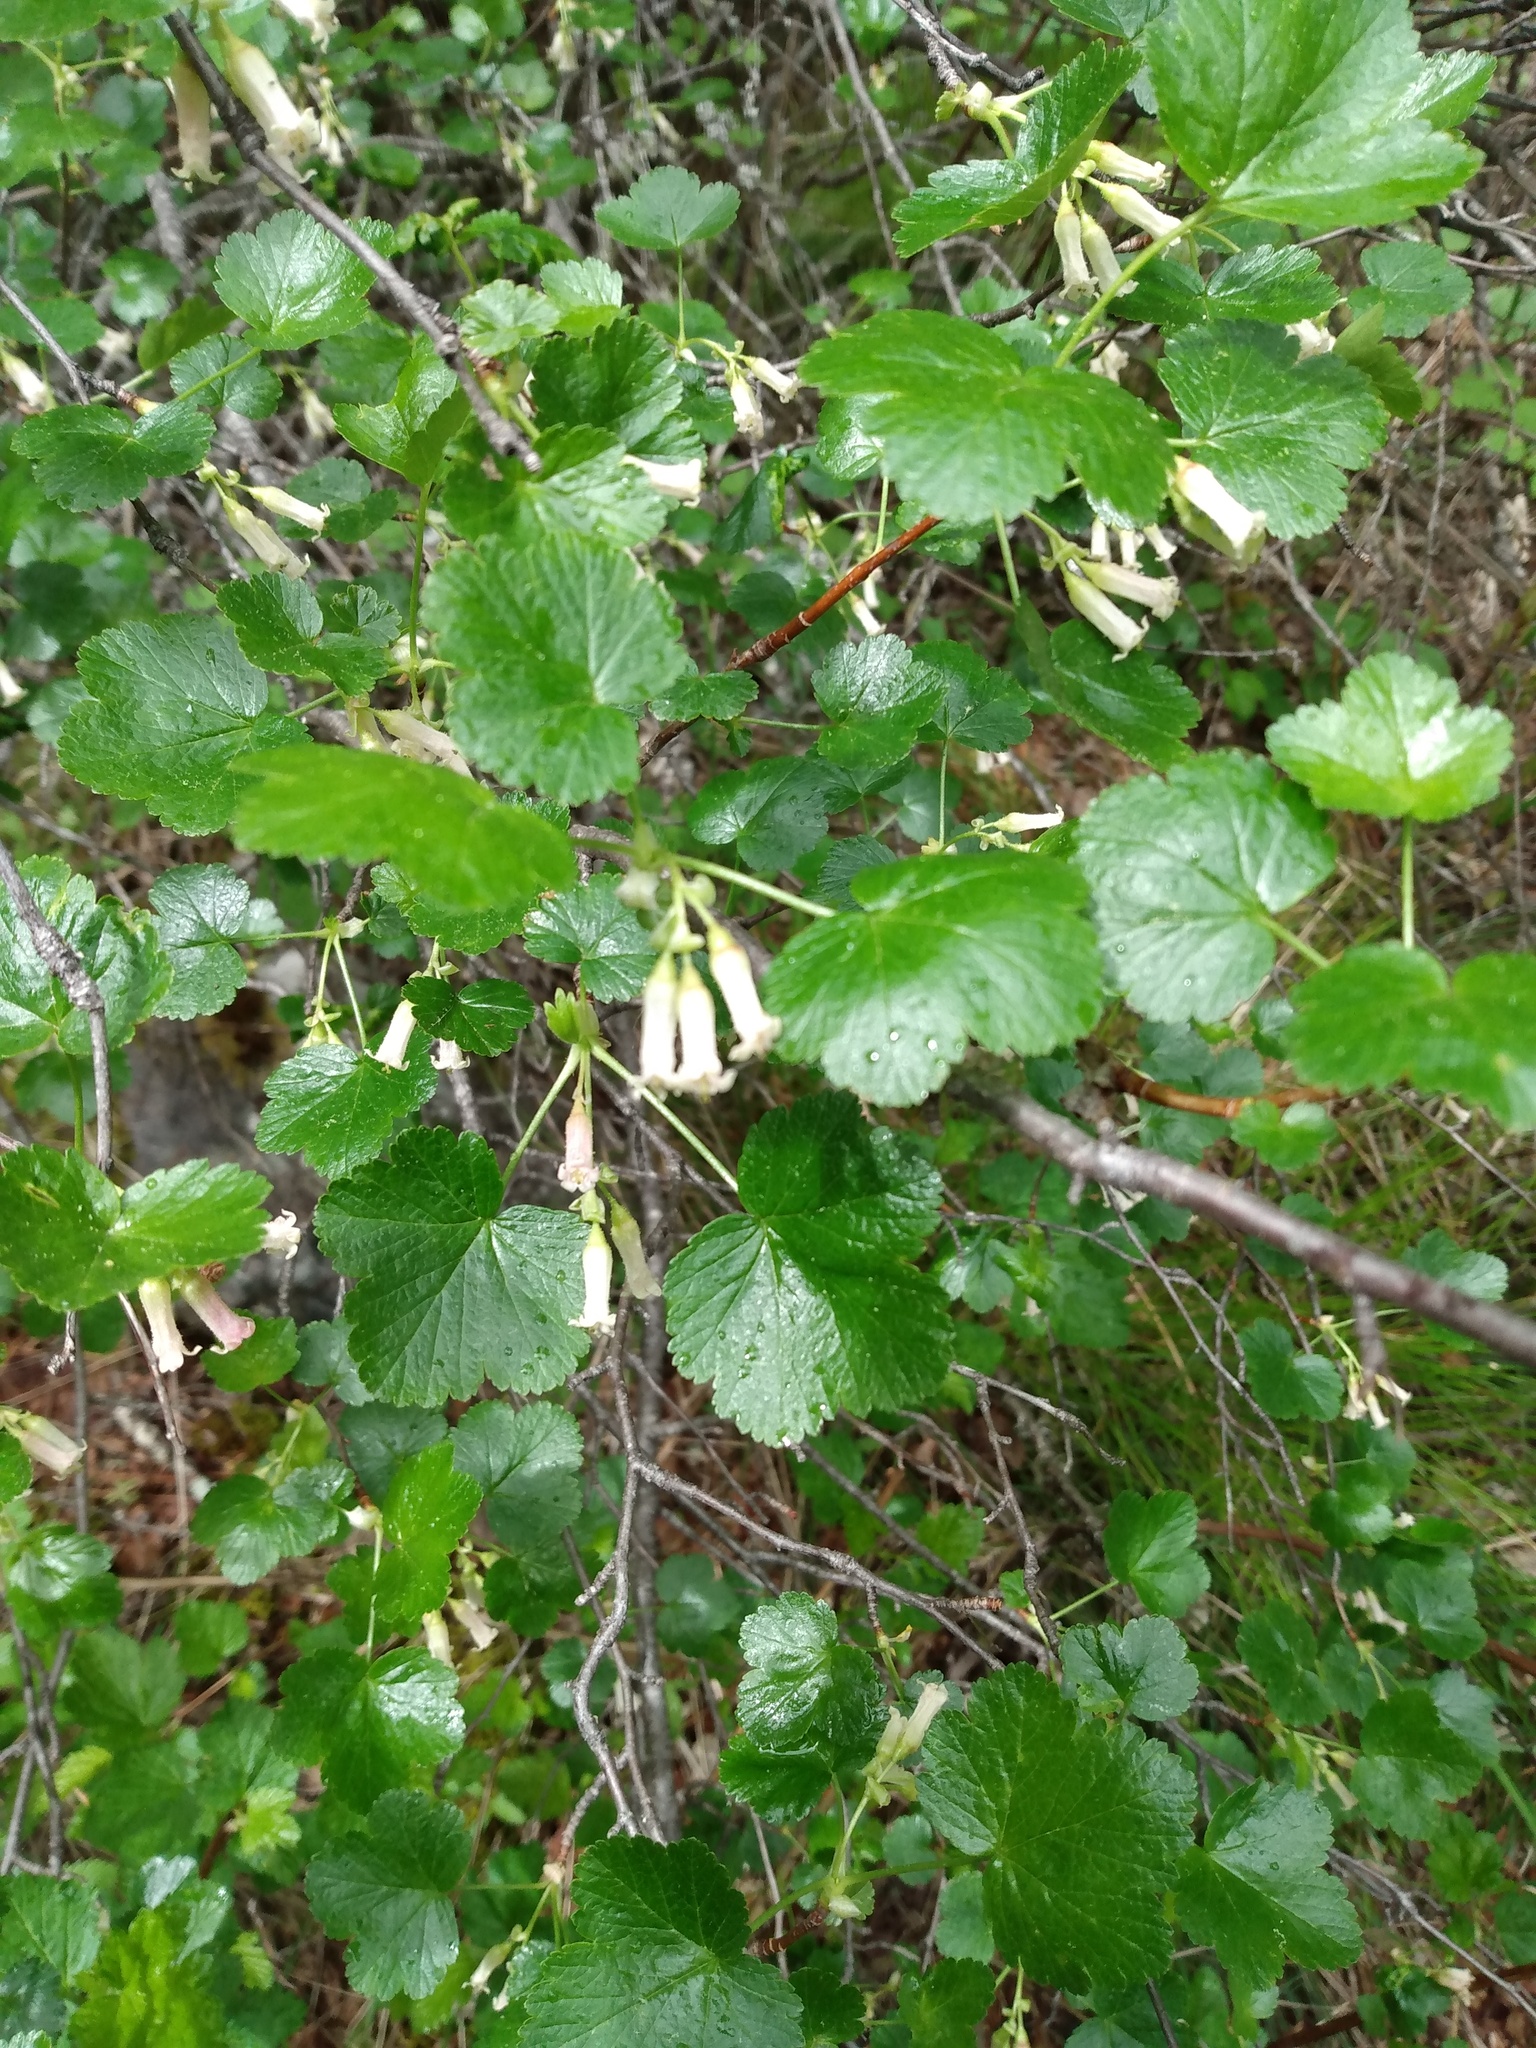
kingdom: Plantae
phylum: Tracheophyta
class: Magnoliopsida
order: Saxifragales
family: Grossulariaceae
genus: Ribes
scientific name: Ribes cereum
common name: Wax currant
